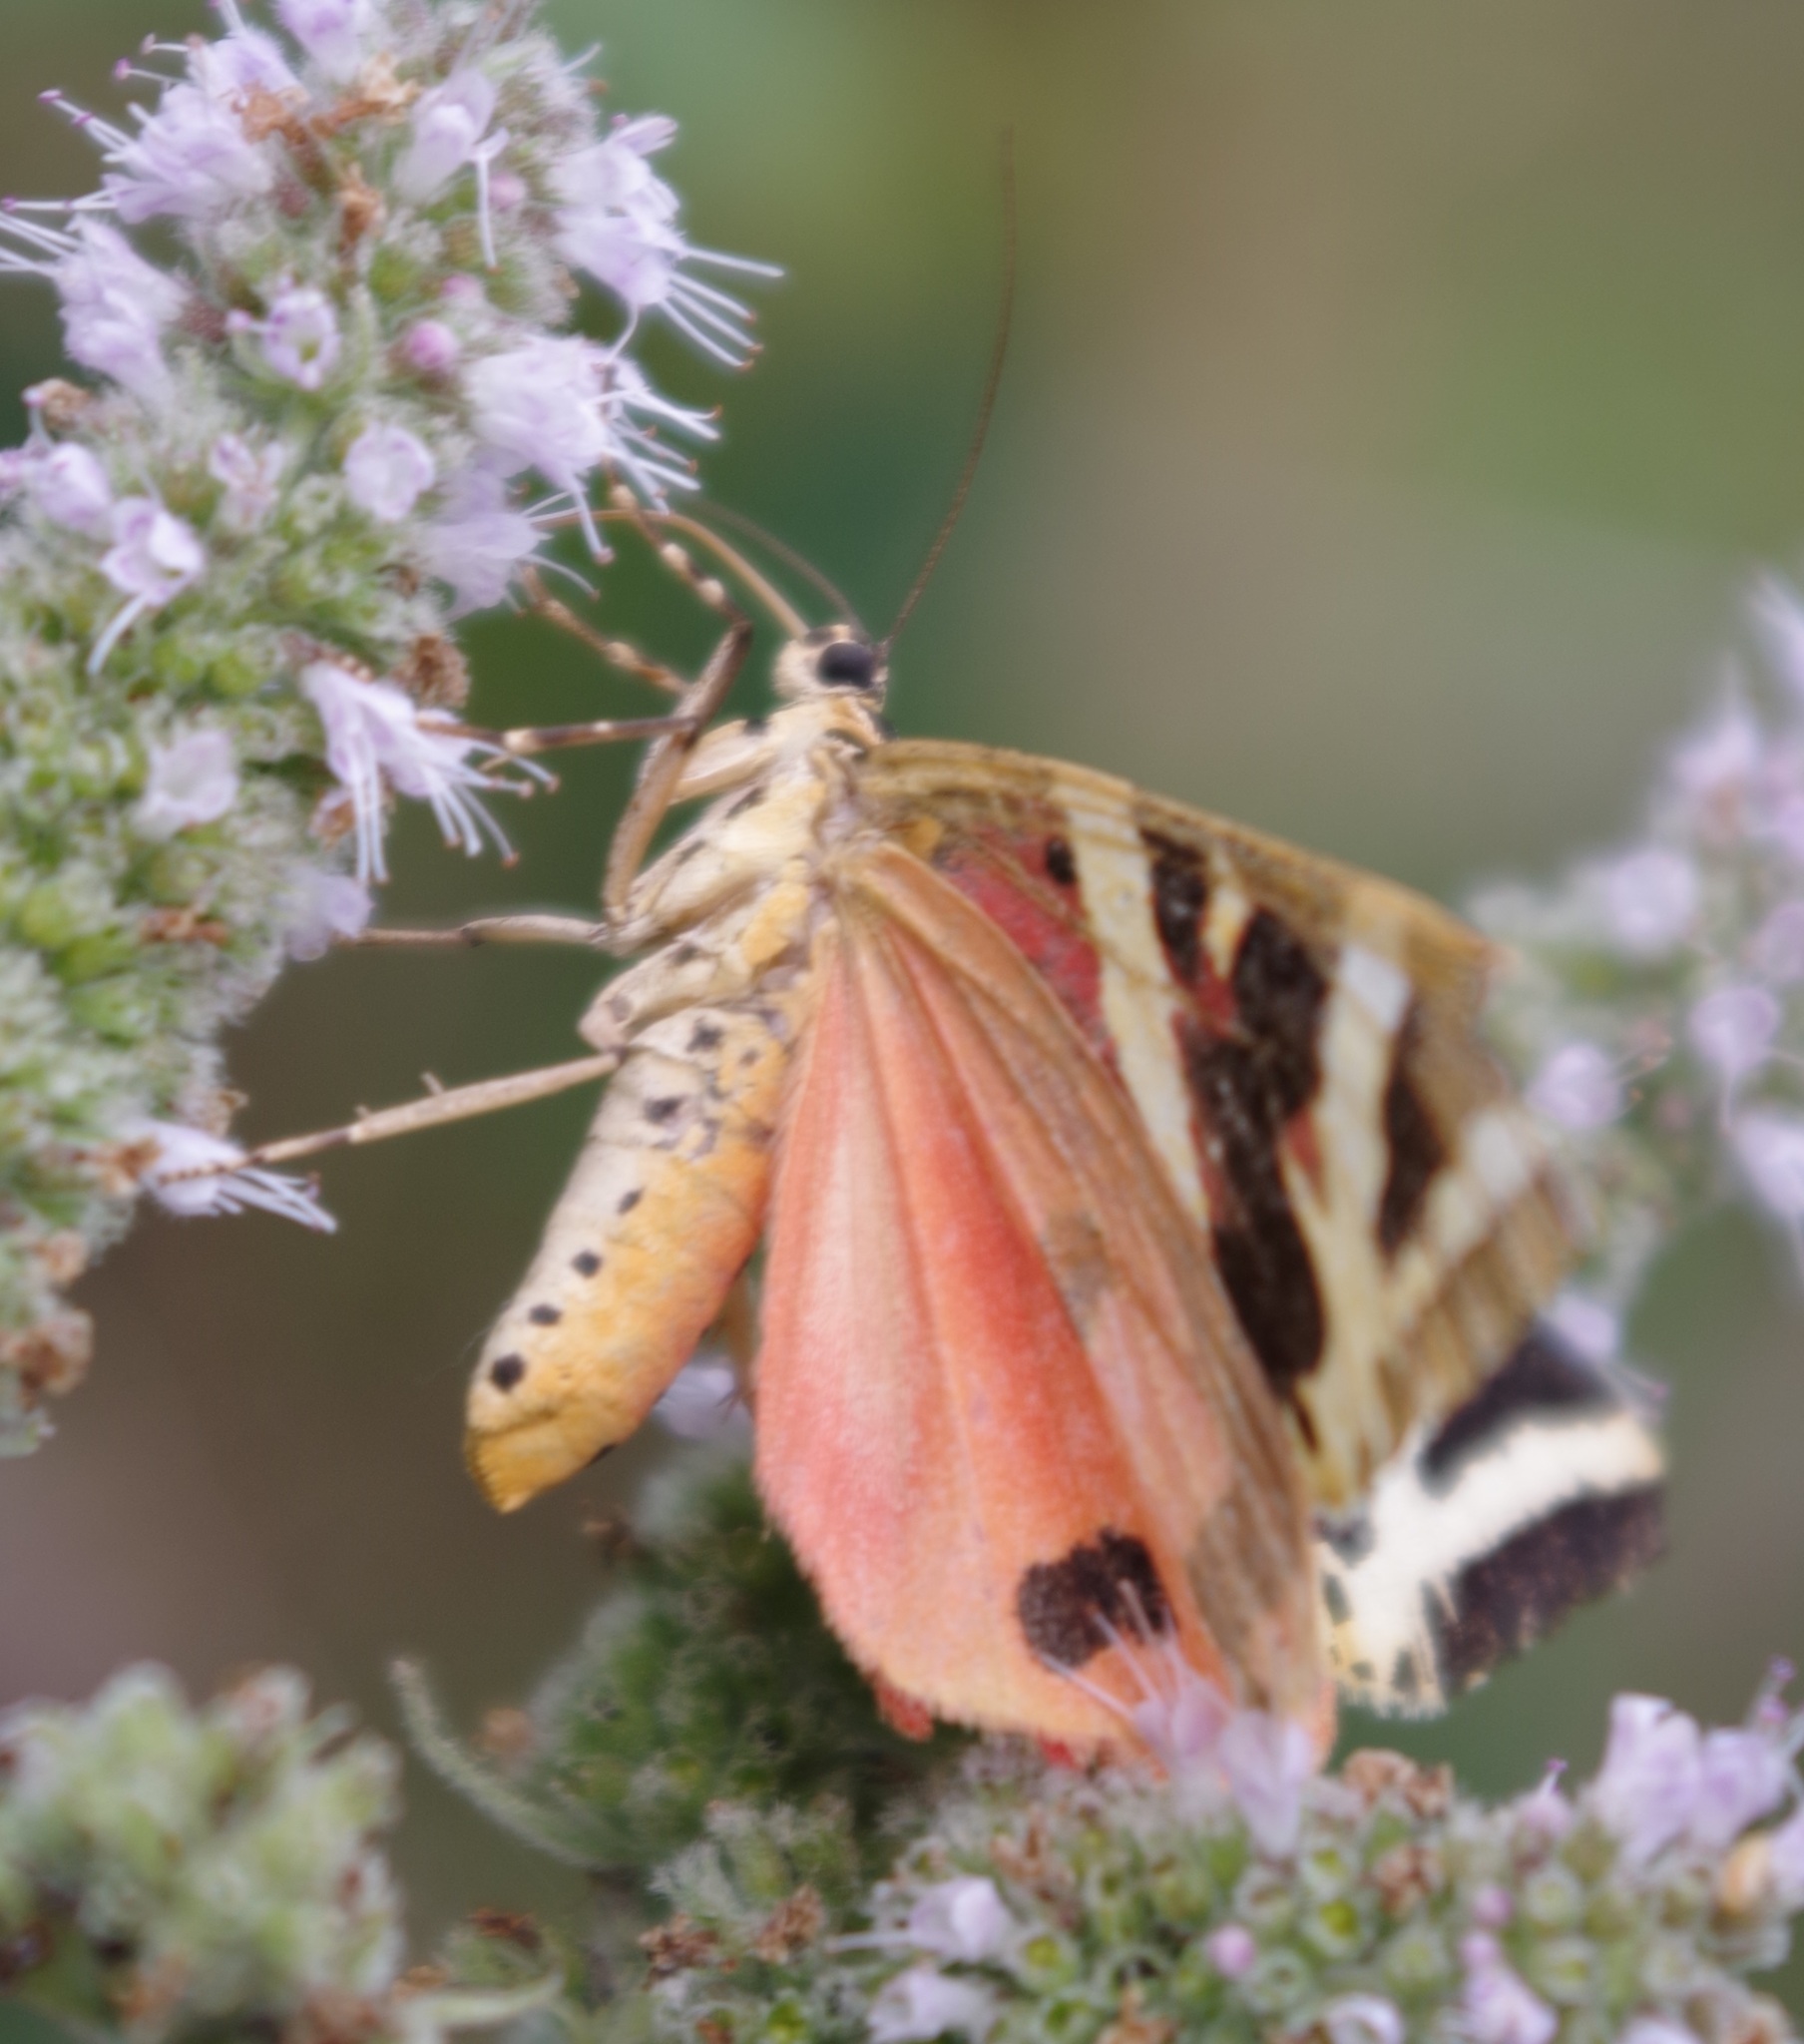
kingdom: Animalia
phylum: Arthropoda
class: Insecta
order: Lepidoptera
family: Erebidae
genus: Euplagia
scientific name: Euplagia quadripunctaria
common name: Jersey tiger
